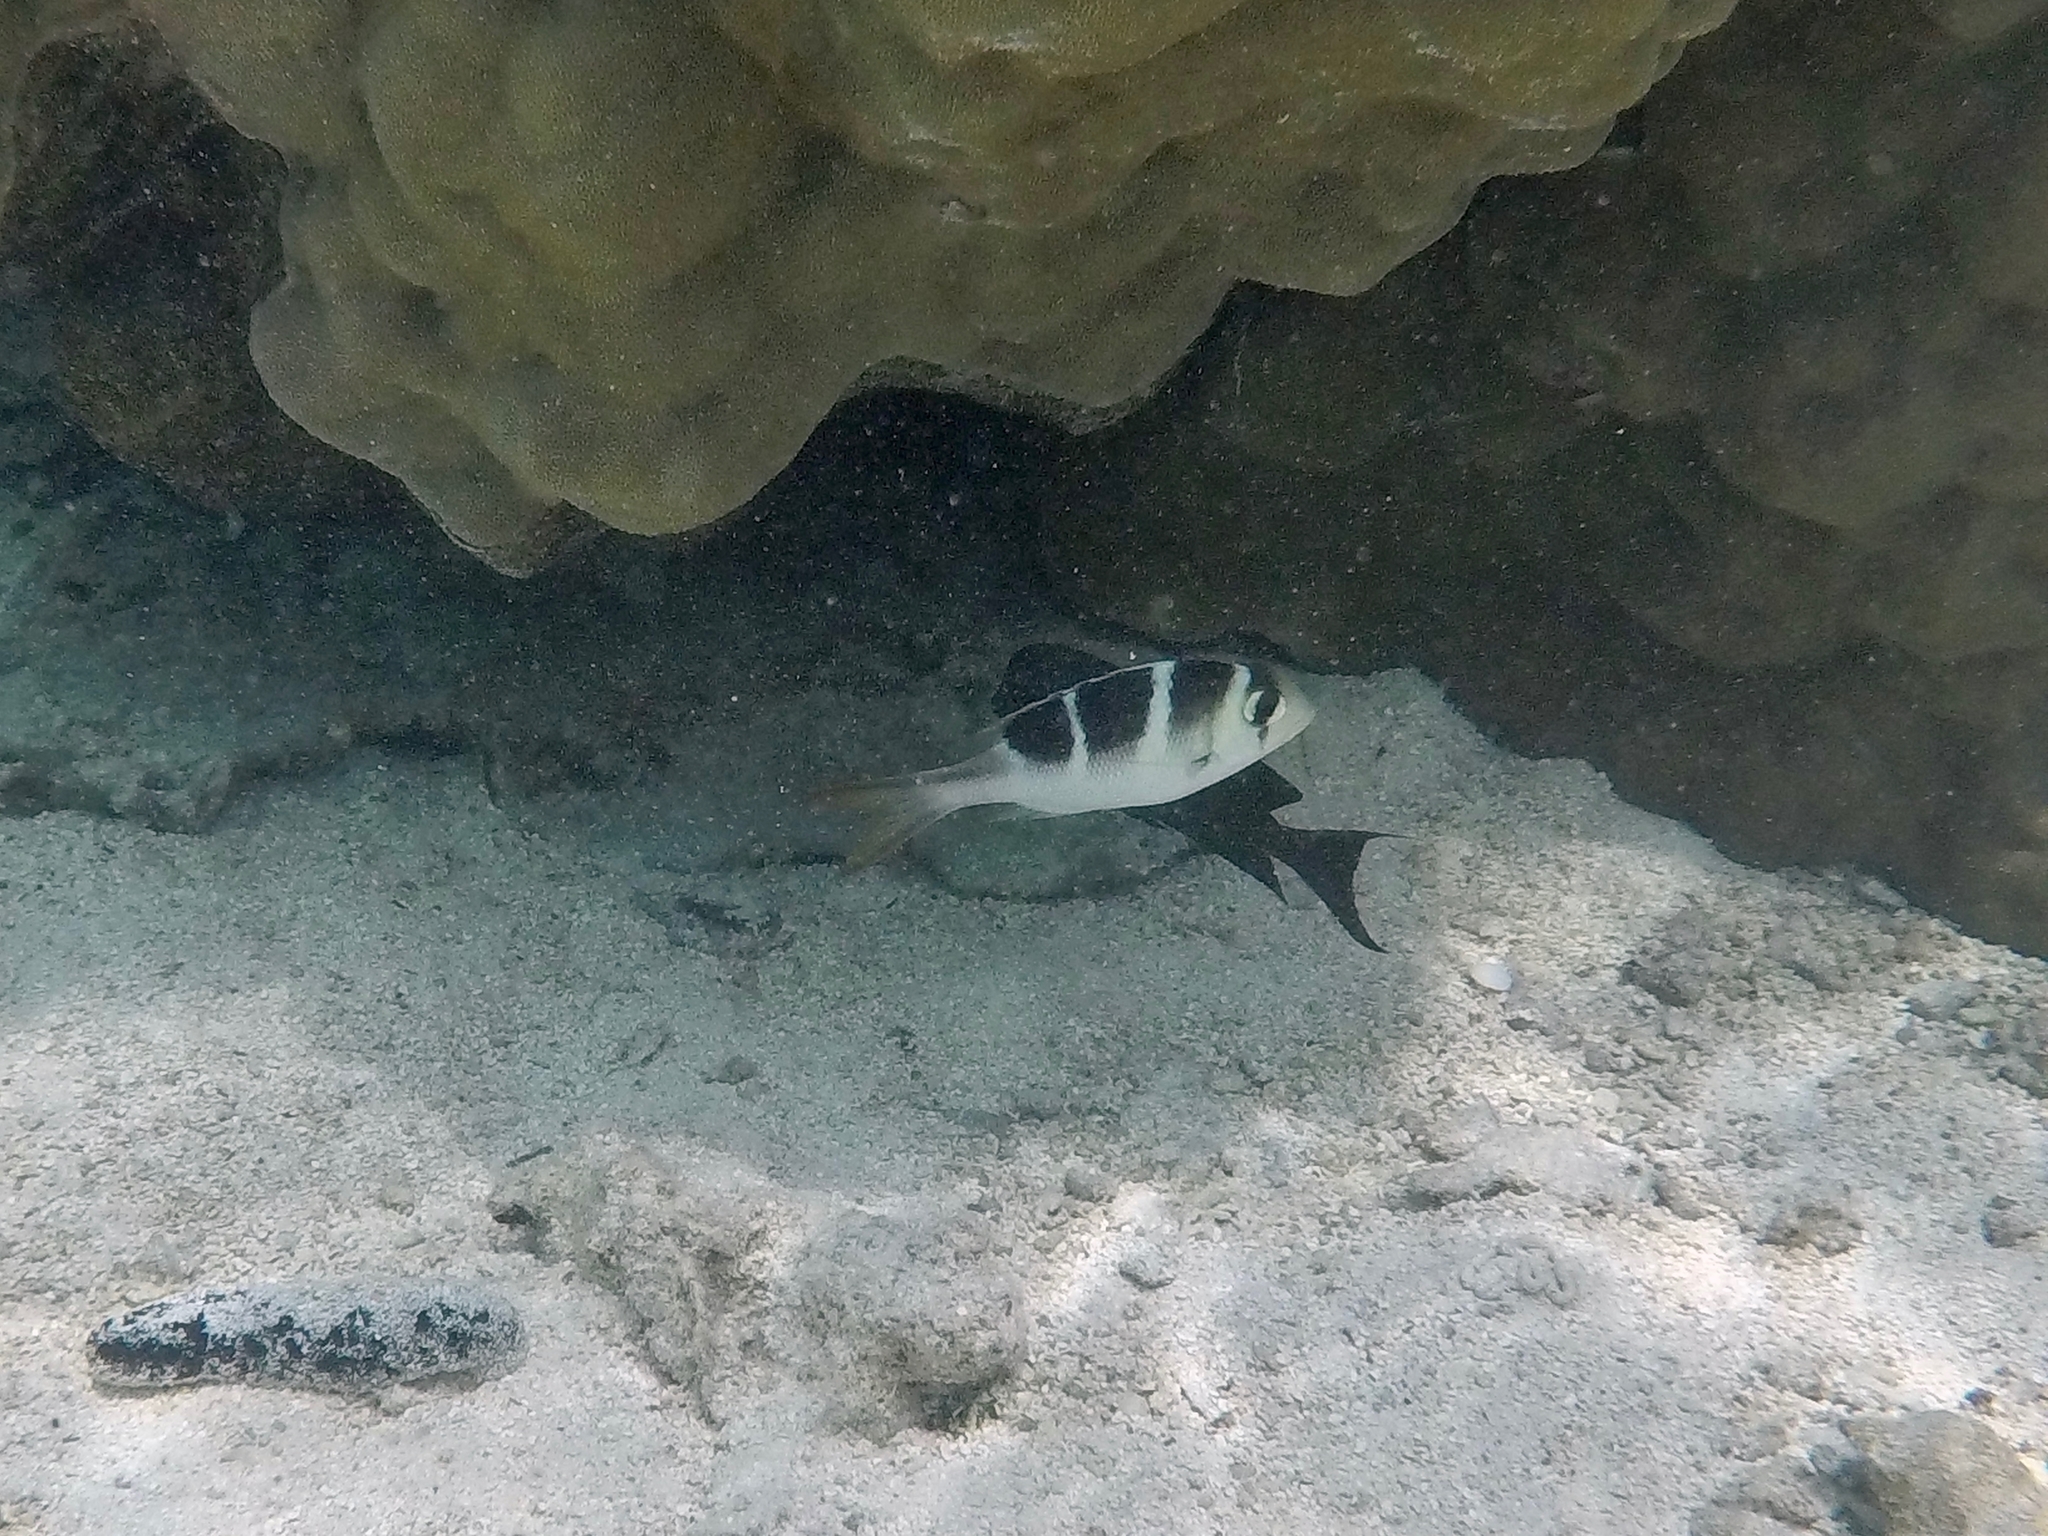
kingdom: Animalia
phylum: Chordata
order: Perciformes
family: Lethrinidae
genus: Monotaxis
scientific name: Monotaxis grandoculis
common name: Bigeye emperor
